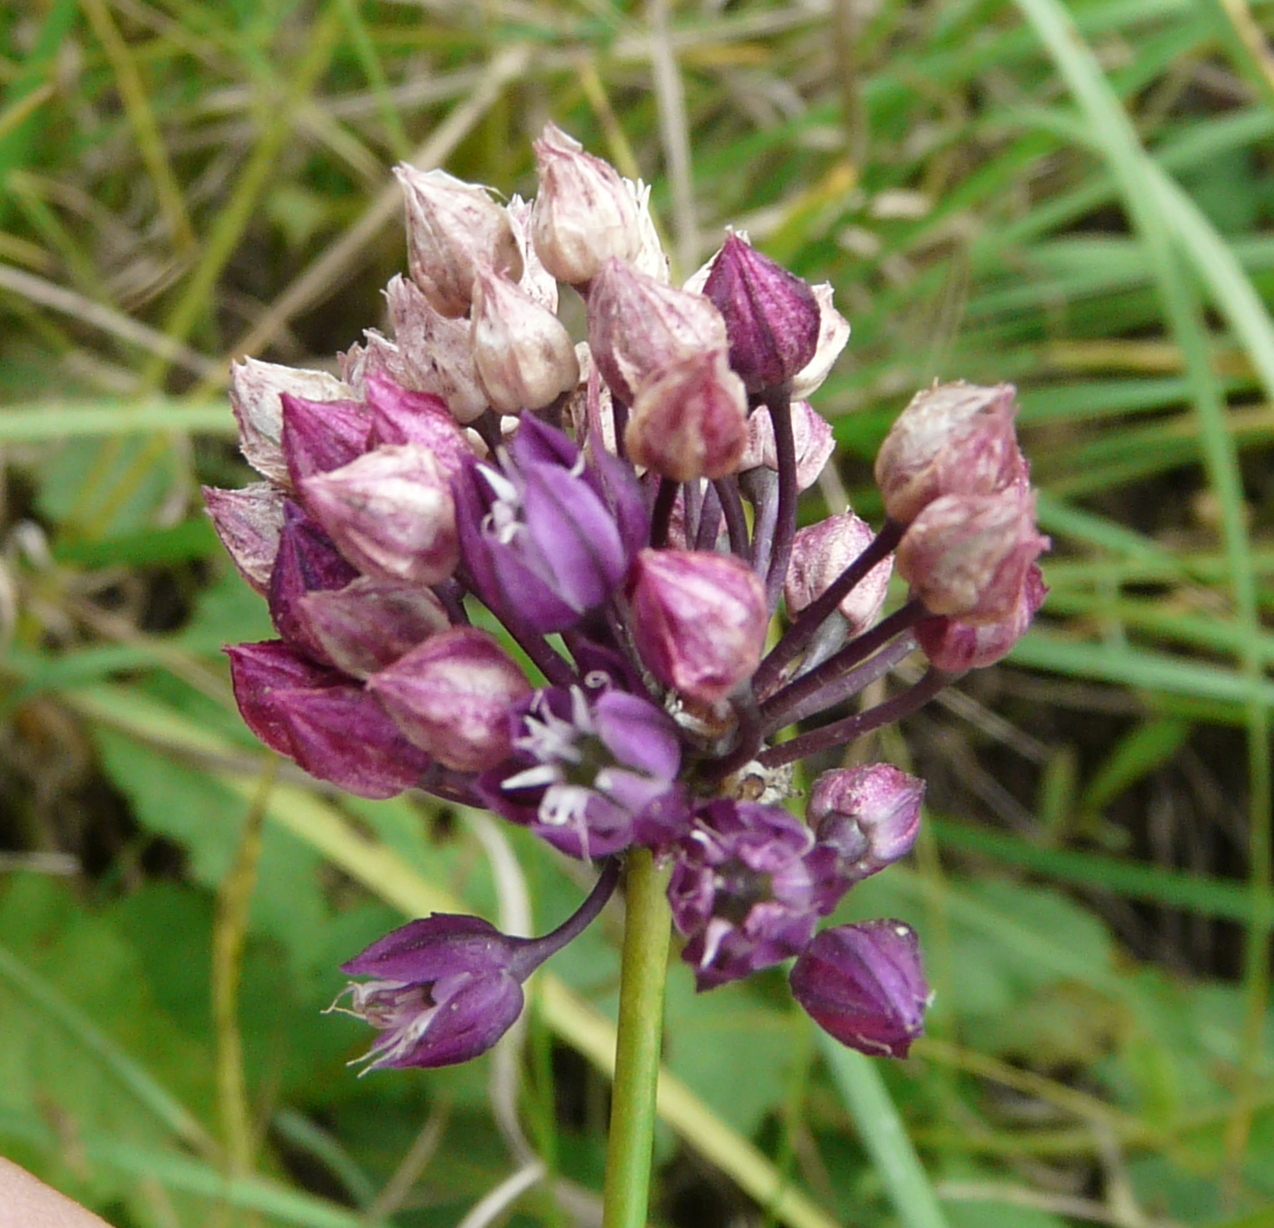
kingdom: Plantae
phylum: Tracheophyta
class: Liliopsida
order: Asparagales
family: Amaryllidaceae
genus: Allium
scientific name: Allium rotundum
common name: Sand leek
